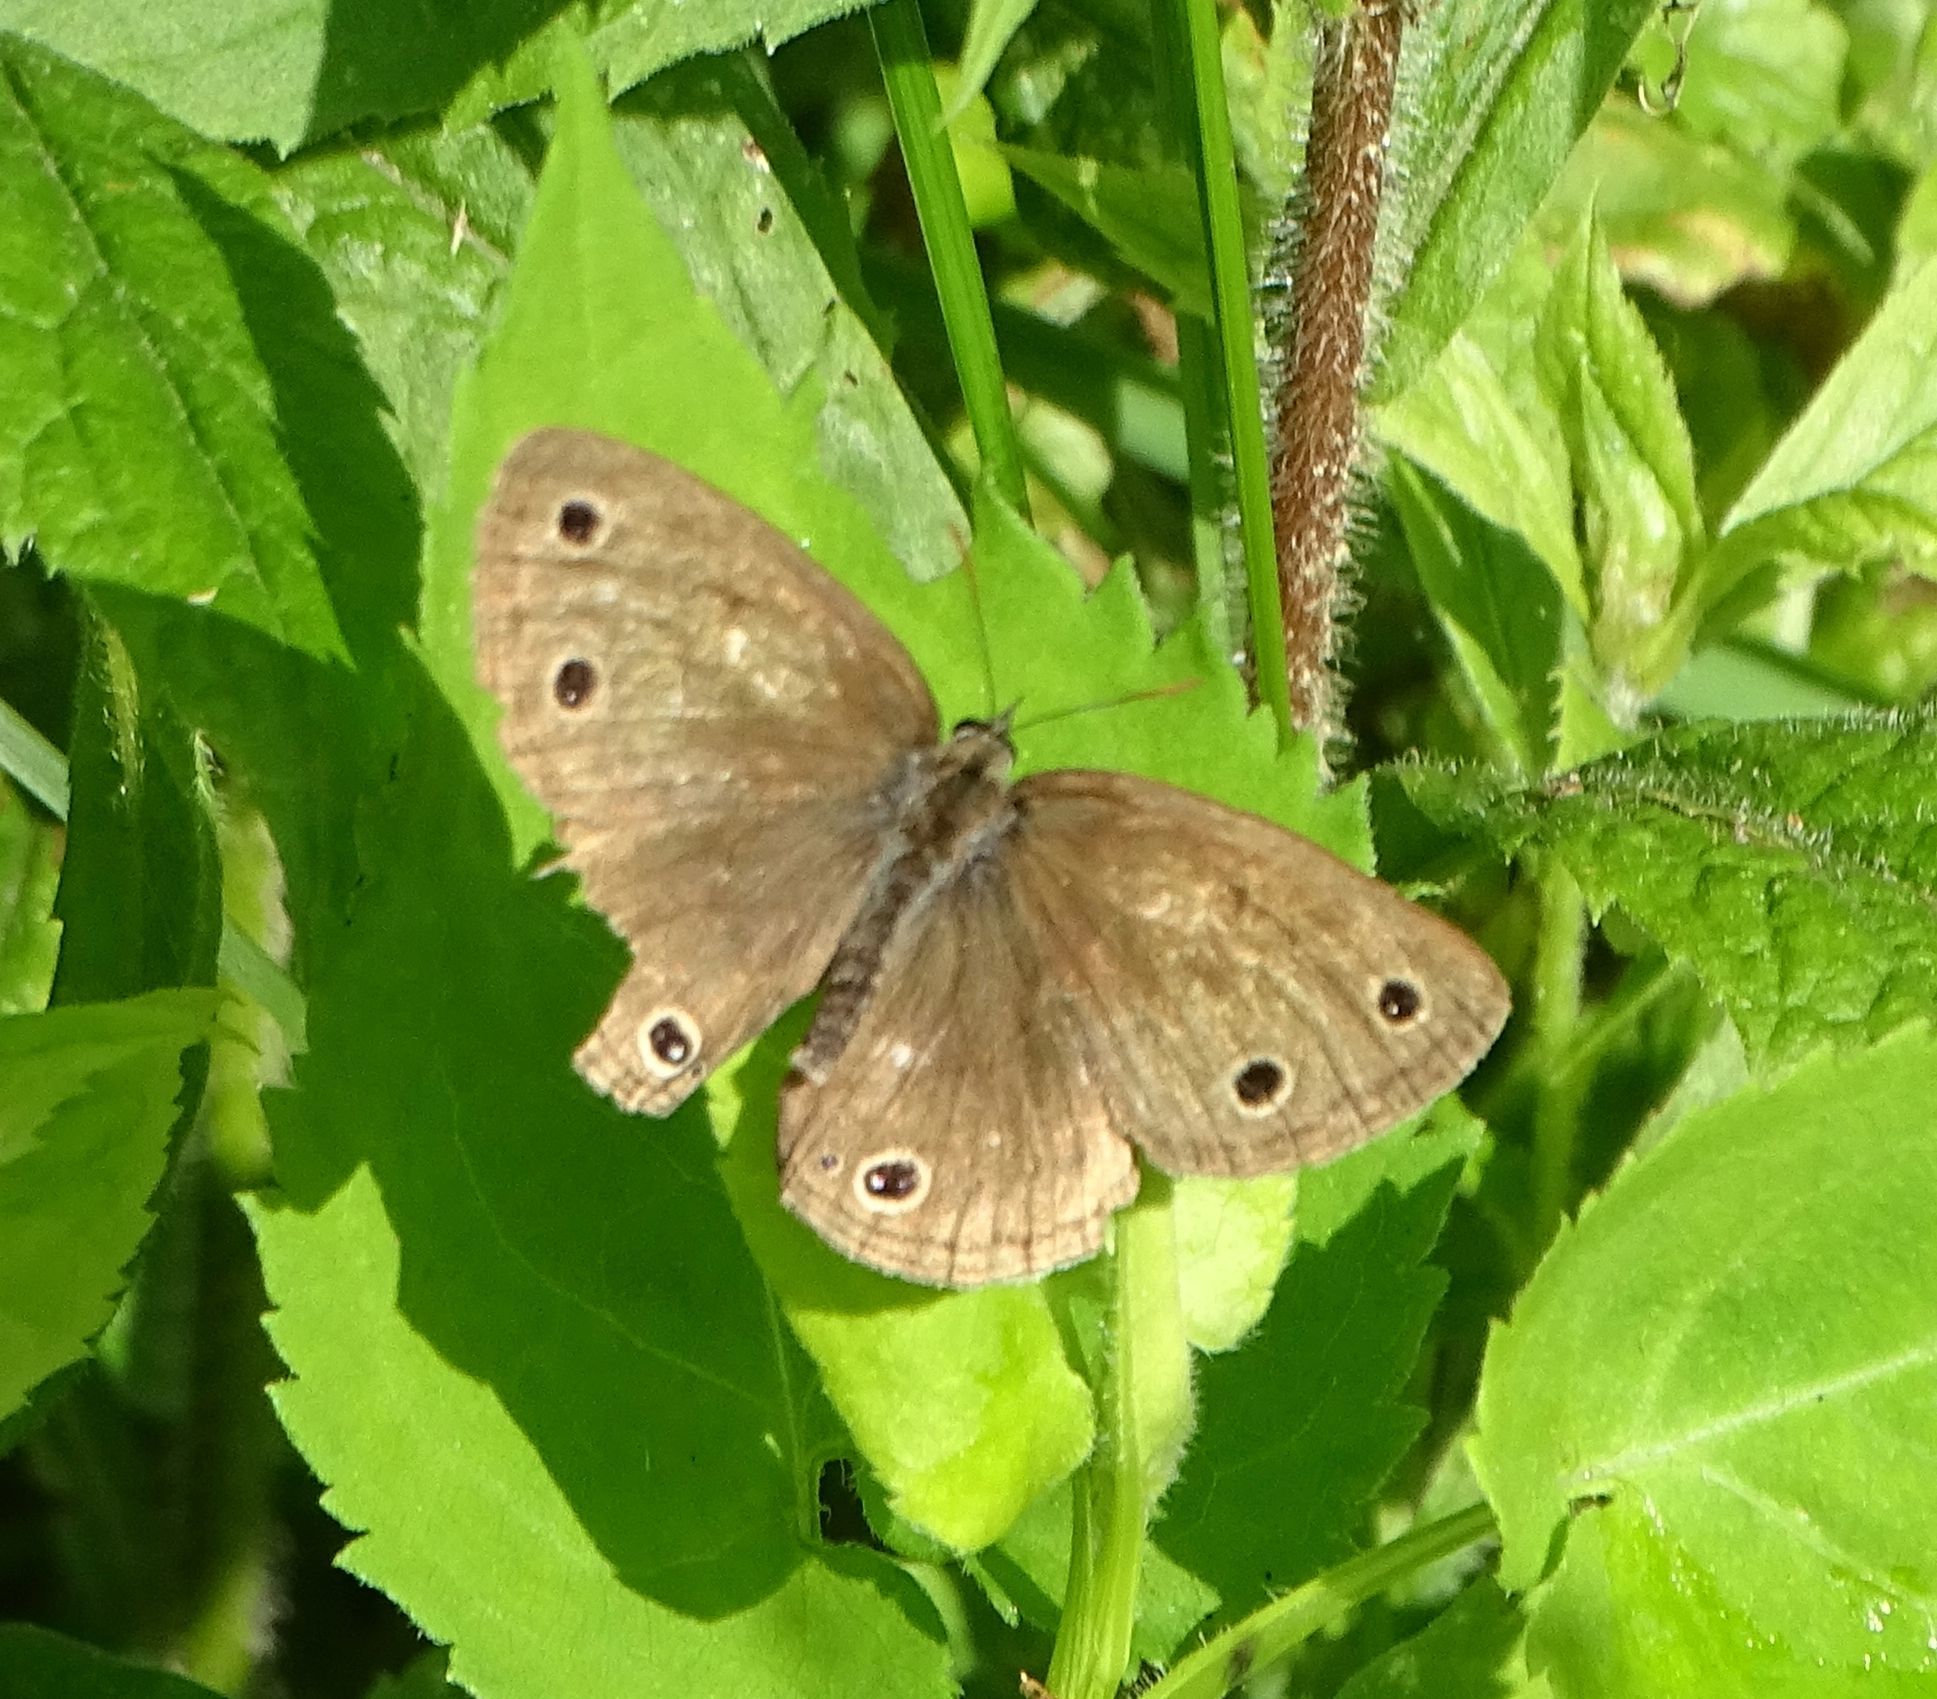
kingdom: Animalia
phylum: Arthropoda
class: Insecta
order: Lepidoptera
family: Nymphalidae
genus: Euptychia
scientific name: Euptychia cymela
